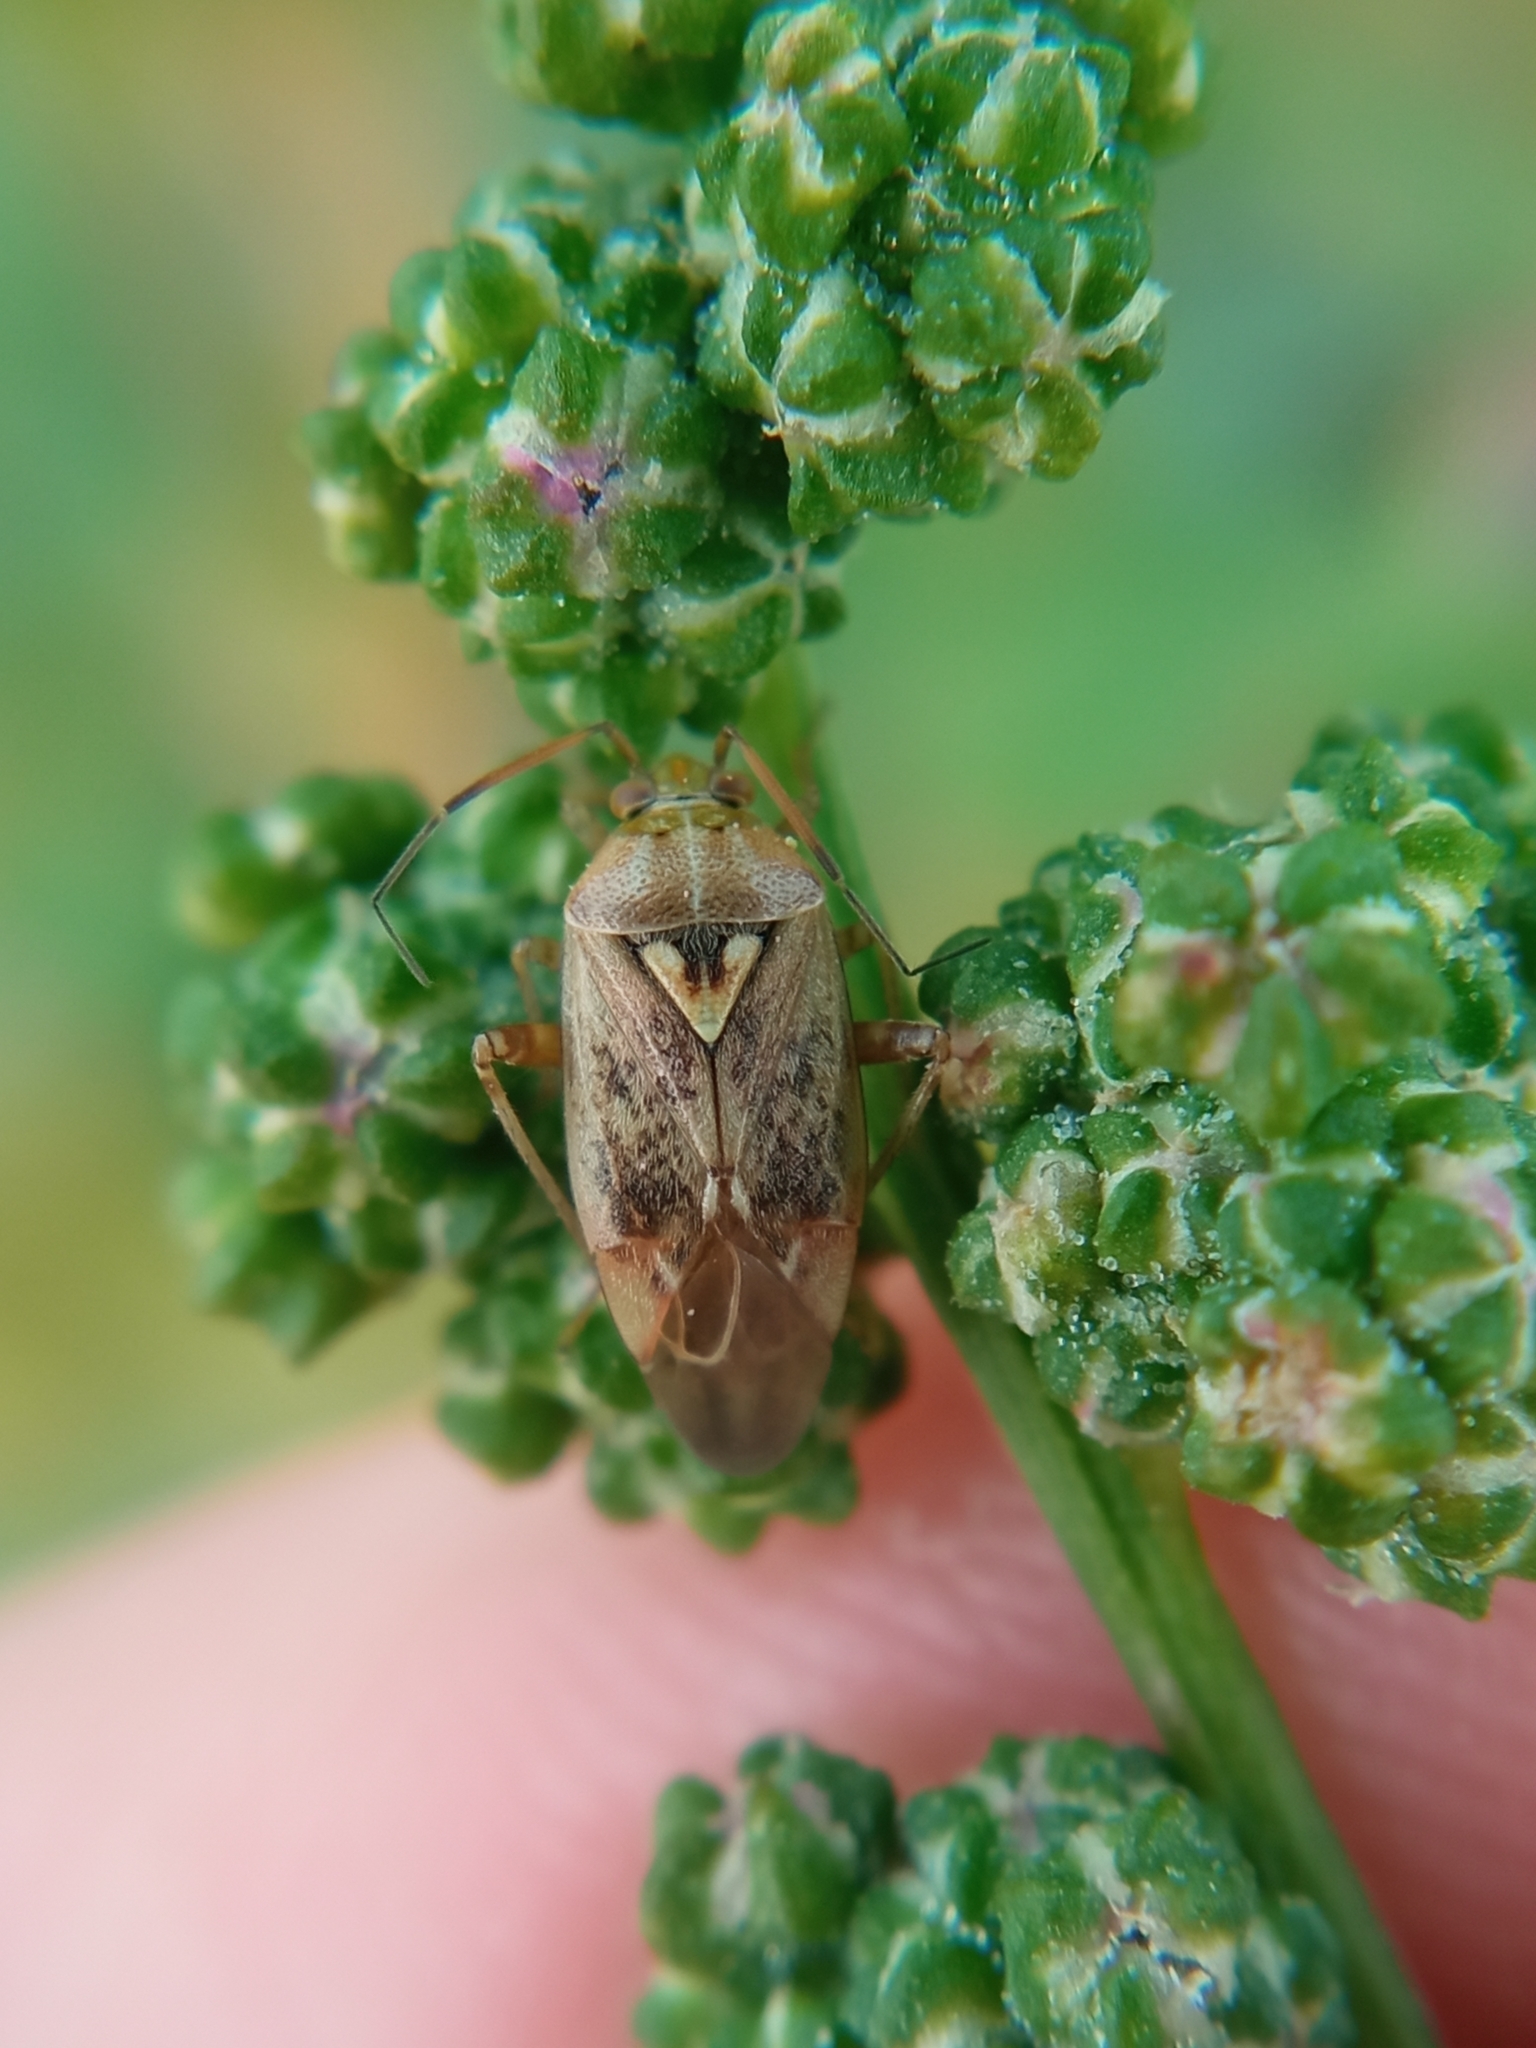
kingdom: Animalia
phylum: Arthropoda
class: Insecta
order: Hemiptera
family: Miridae
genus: Lygus
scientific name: Lygus rugulipennis
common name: European tarnished plant bug
